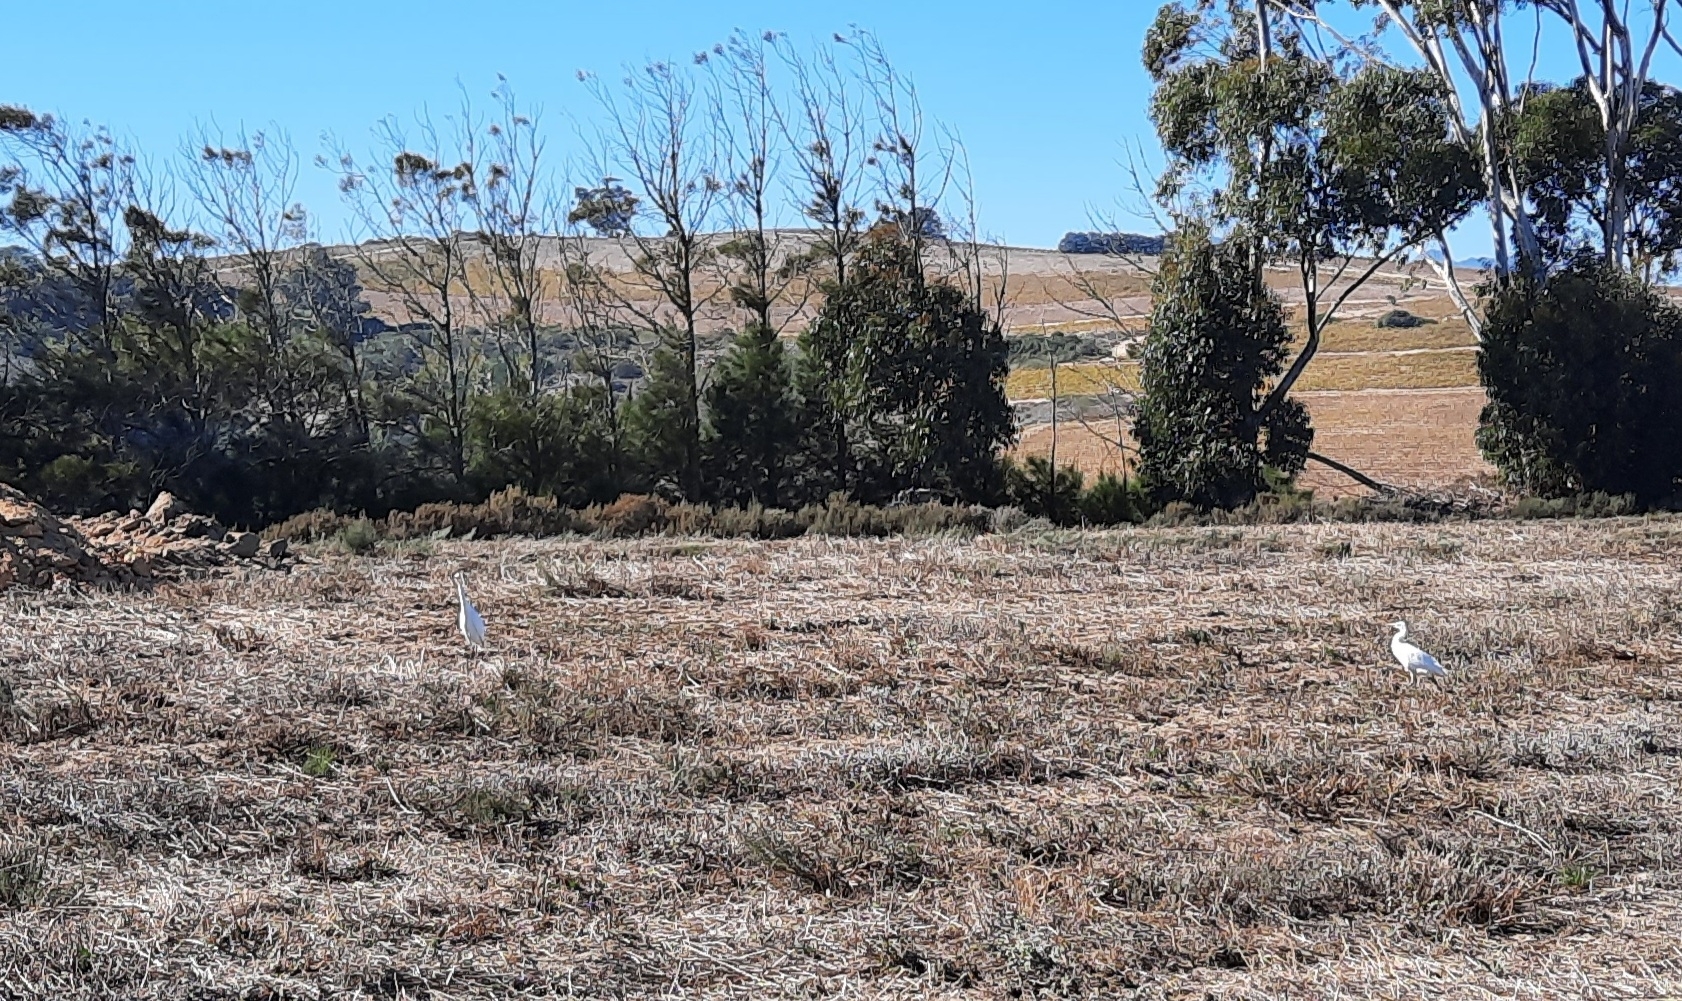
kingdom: Animalia
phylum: Chordata
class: Aves
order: Pelecaniformes
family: Ardeidae
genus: Bubulcus
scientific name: Bubulcus ibis
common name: Cattle egret
